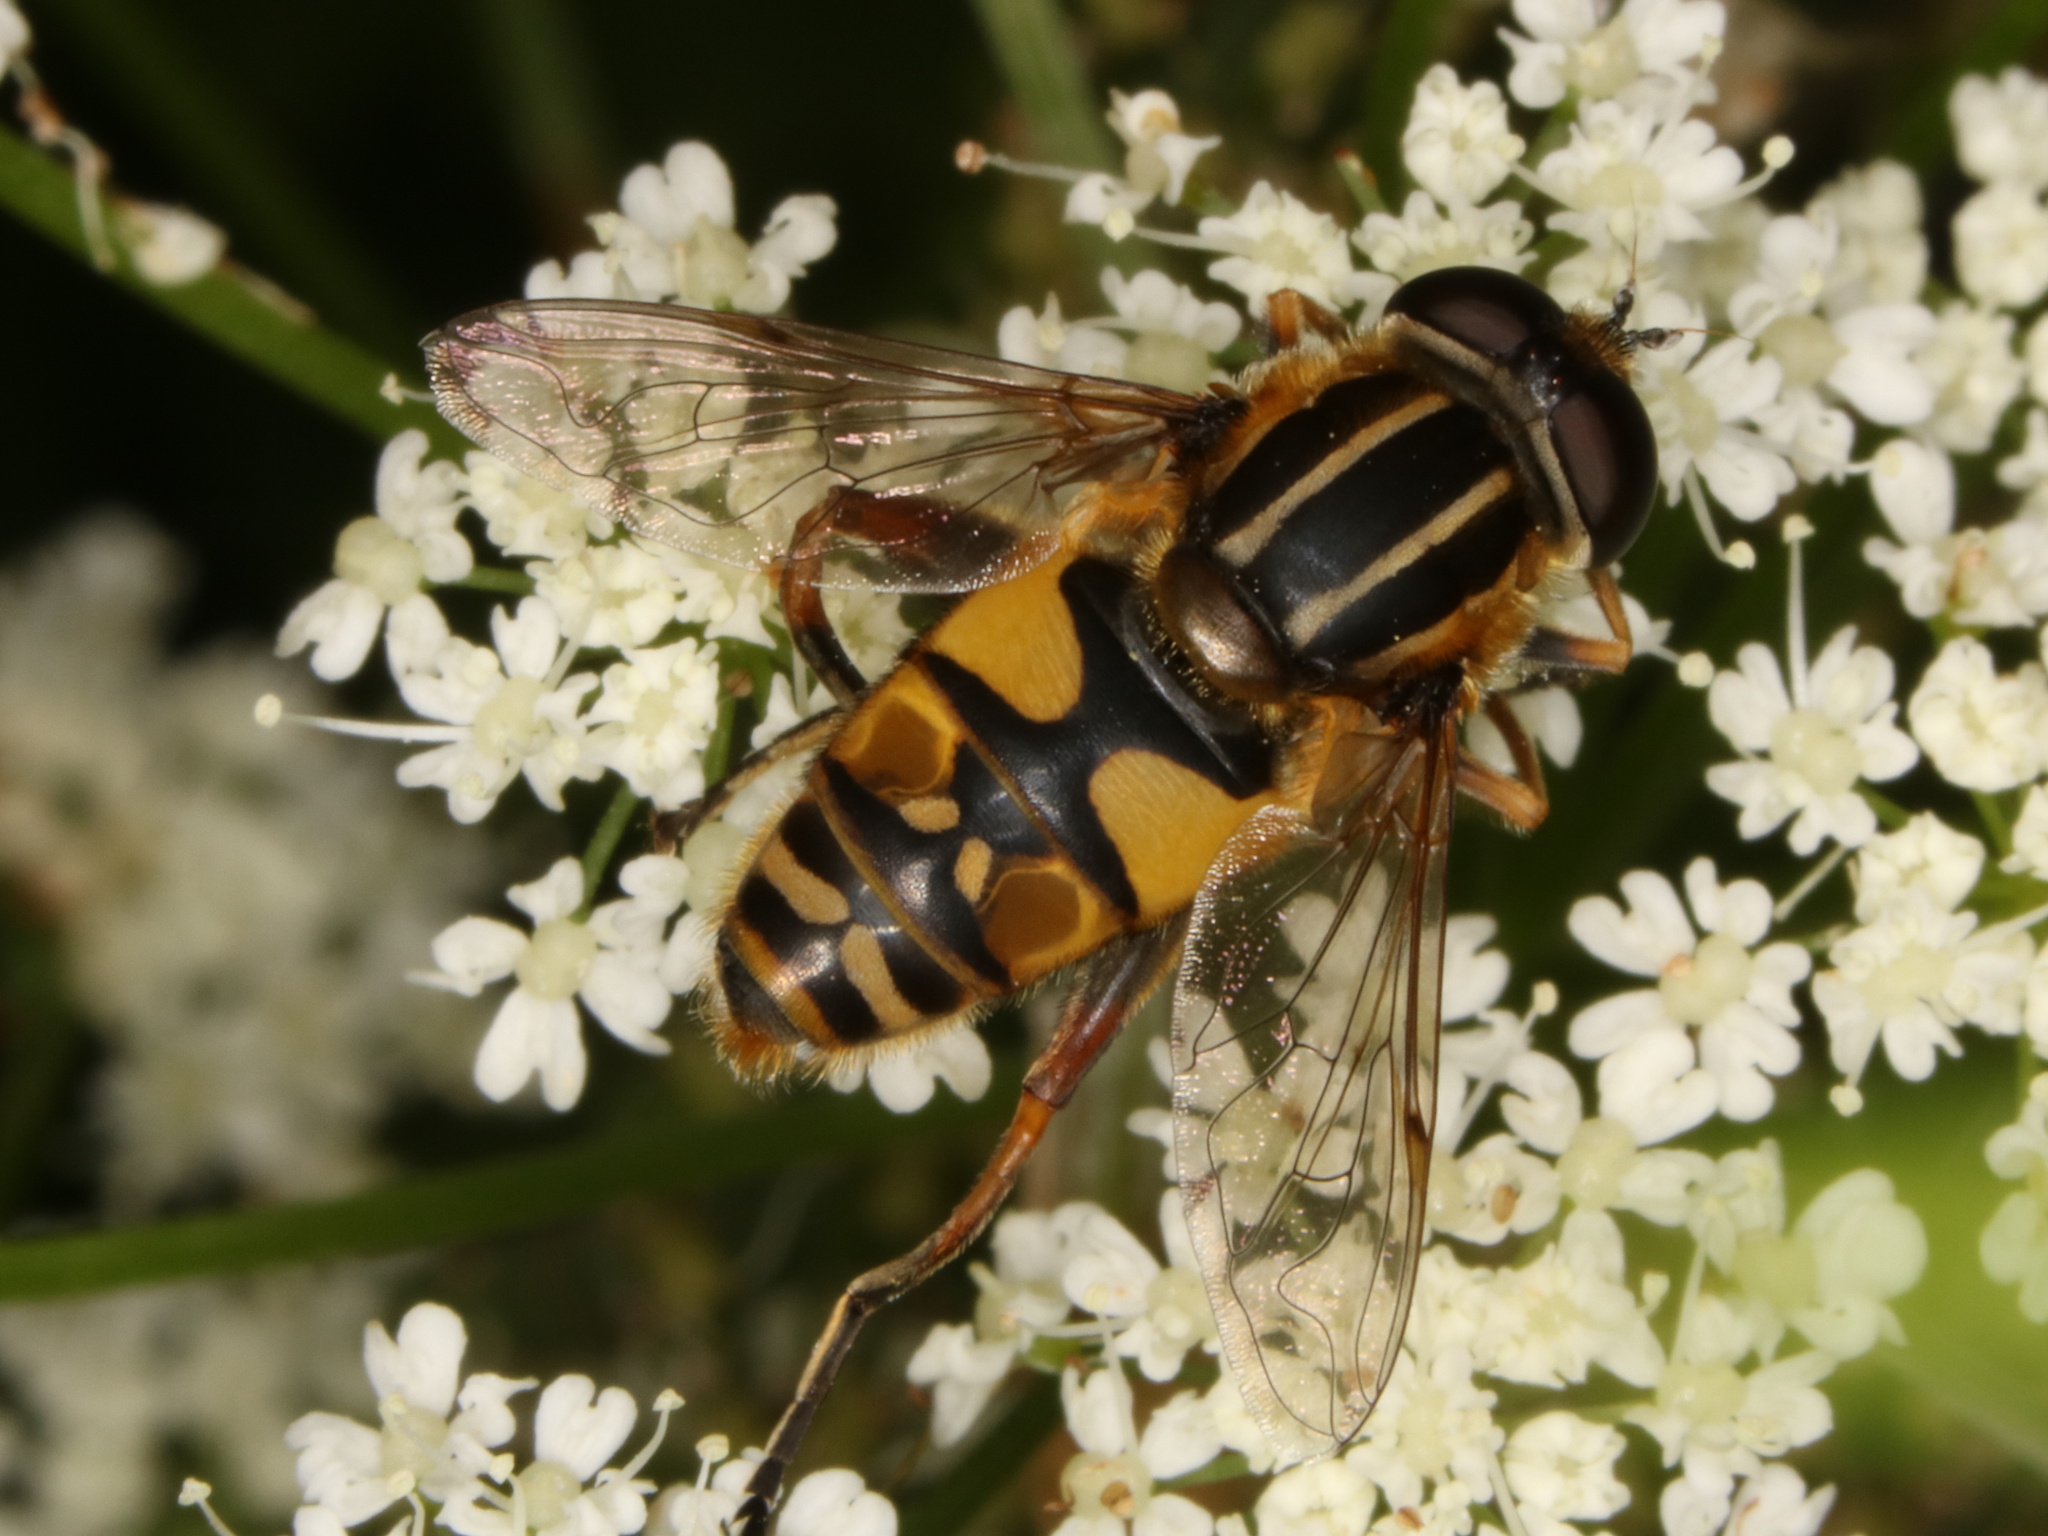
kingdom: Animalia
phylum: Arthropoda
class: Insecta
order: Diptera
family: Syrphidae
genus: Helophilus
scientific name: Helophilus pendulus
